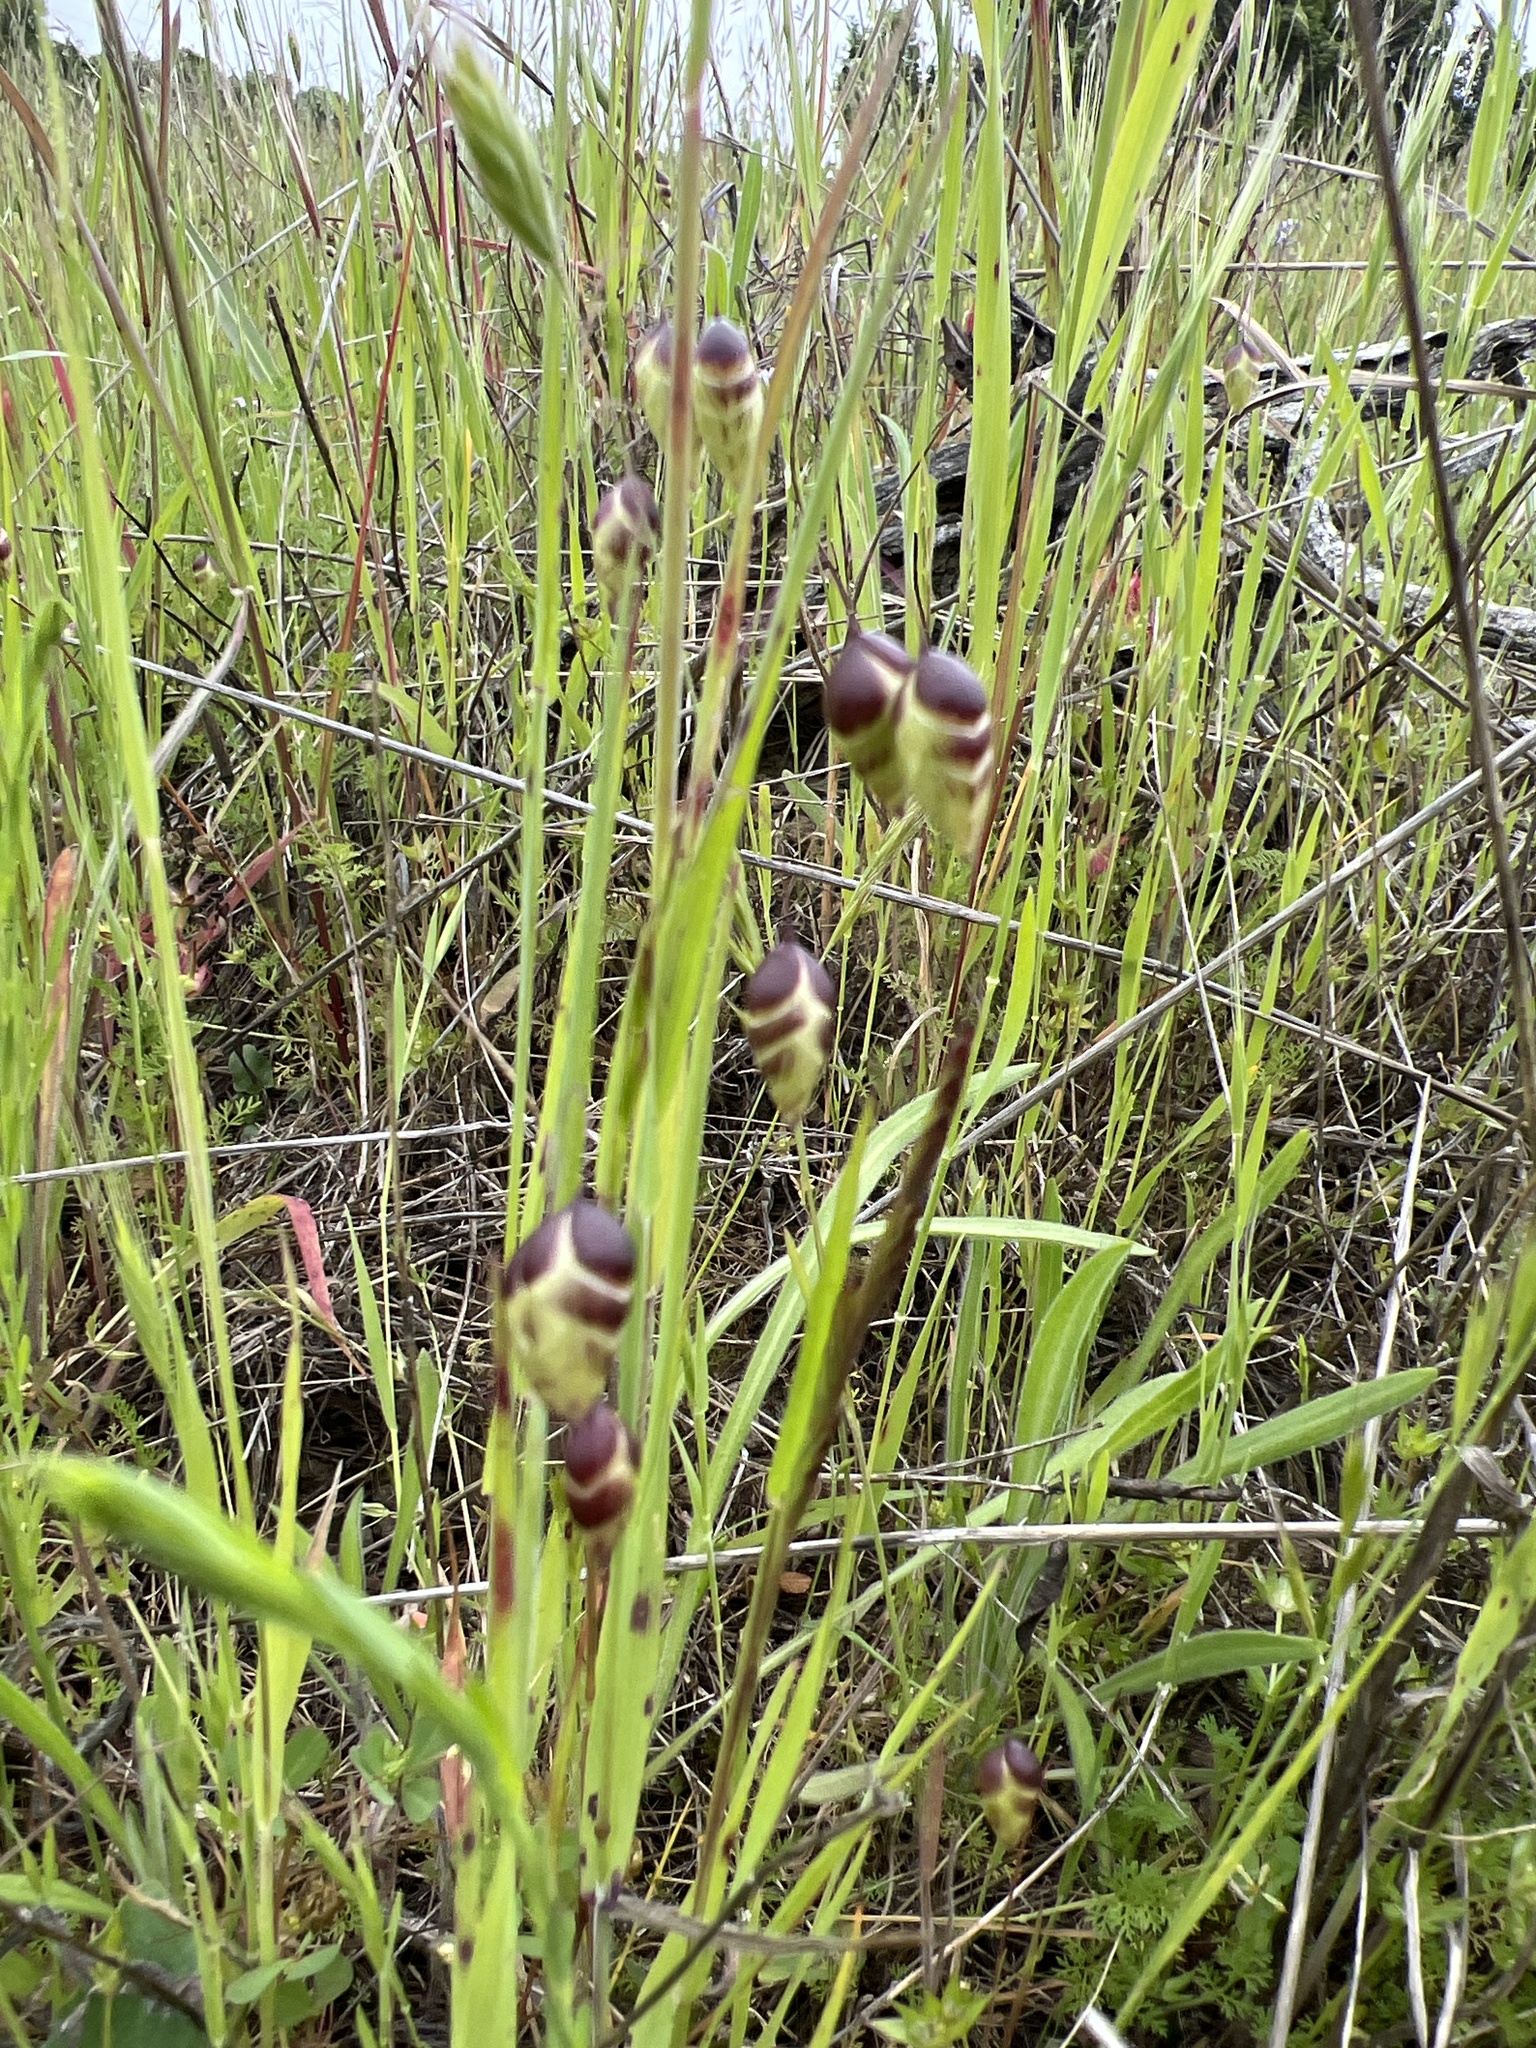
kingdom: Plantae
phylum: Tracheophyta
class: Liliopsida
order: Poales
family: Poaceae
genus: Briza
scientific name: Briza maxima
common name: Big quakinggrass
